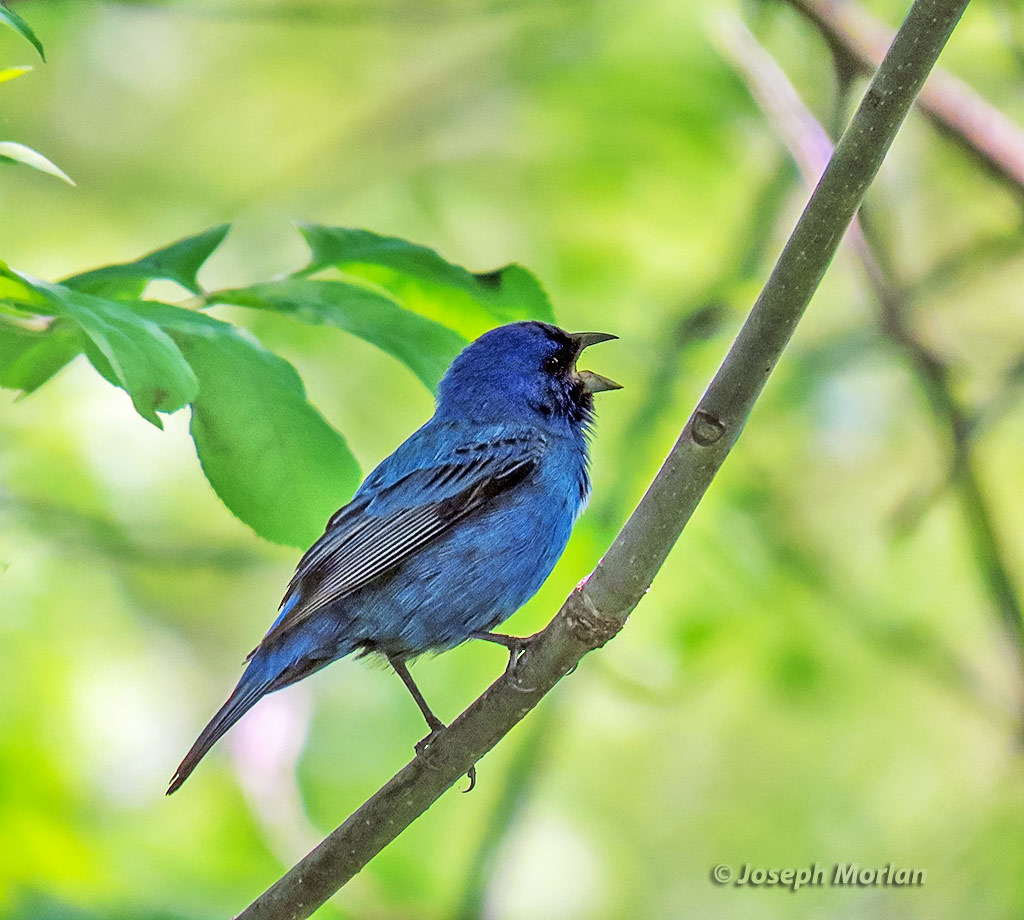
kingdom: Animalia
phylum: Chordata
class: Aves
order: Passeriformes
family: Cardinalidae
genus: Passerina
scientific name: Passerina cyanea
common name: Indigo bunting
